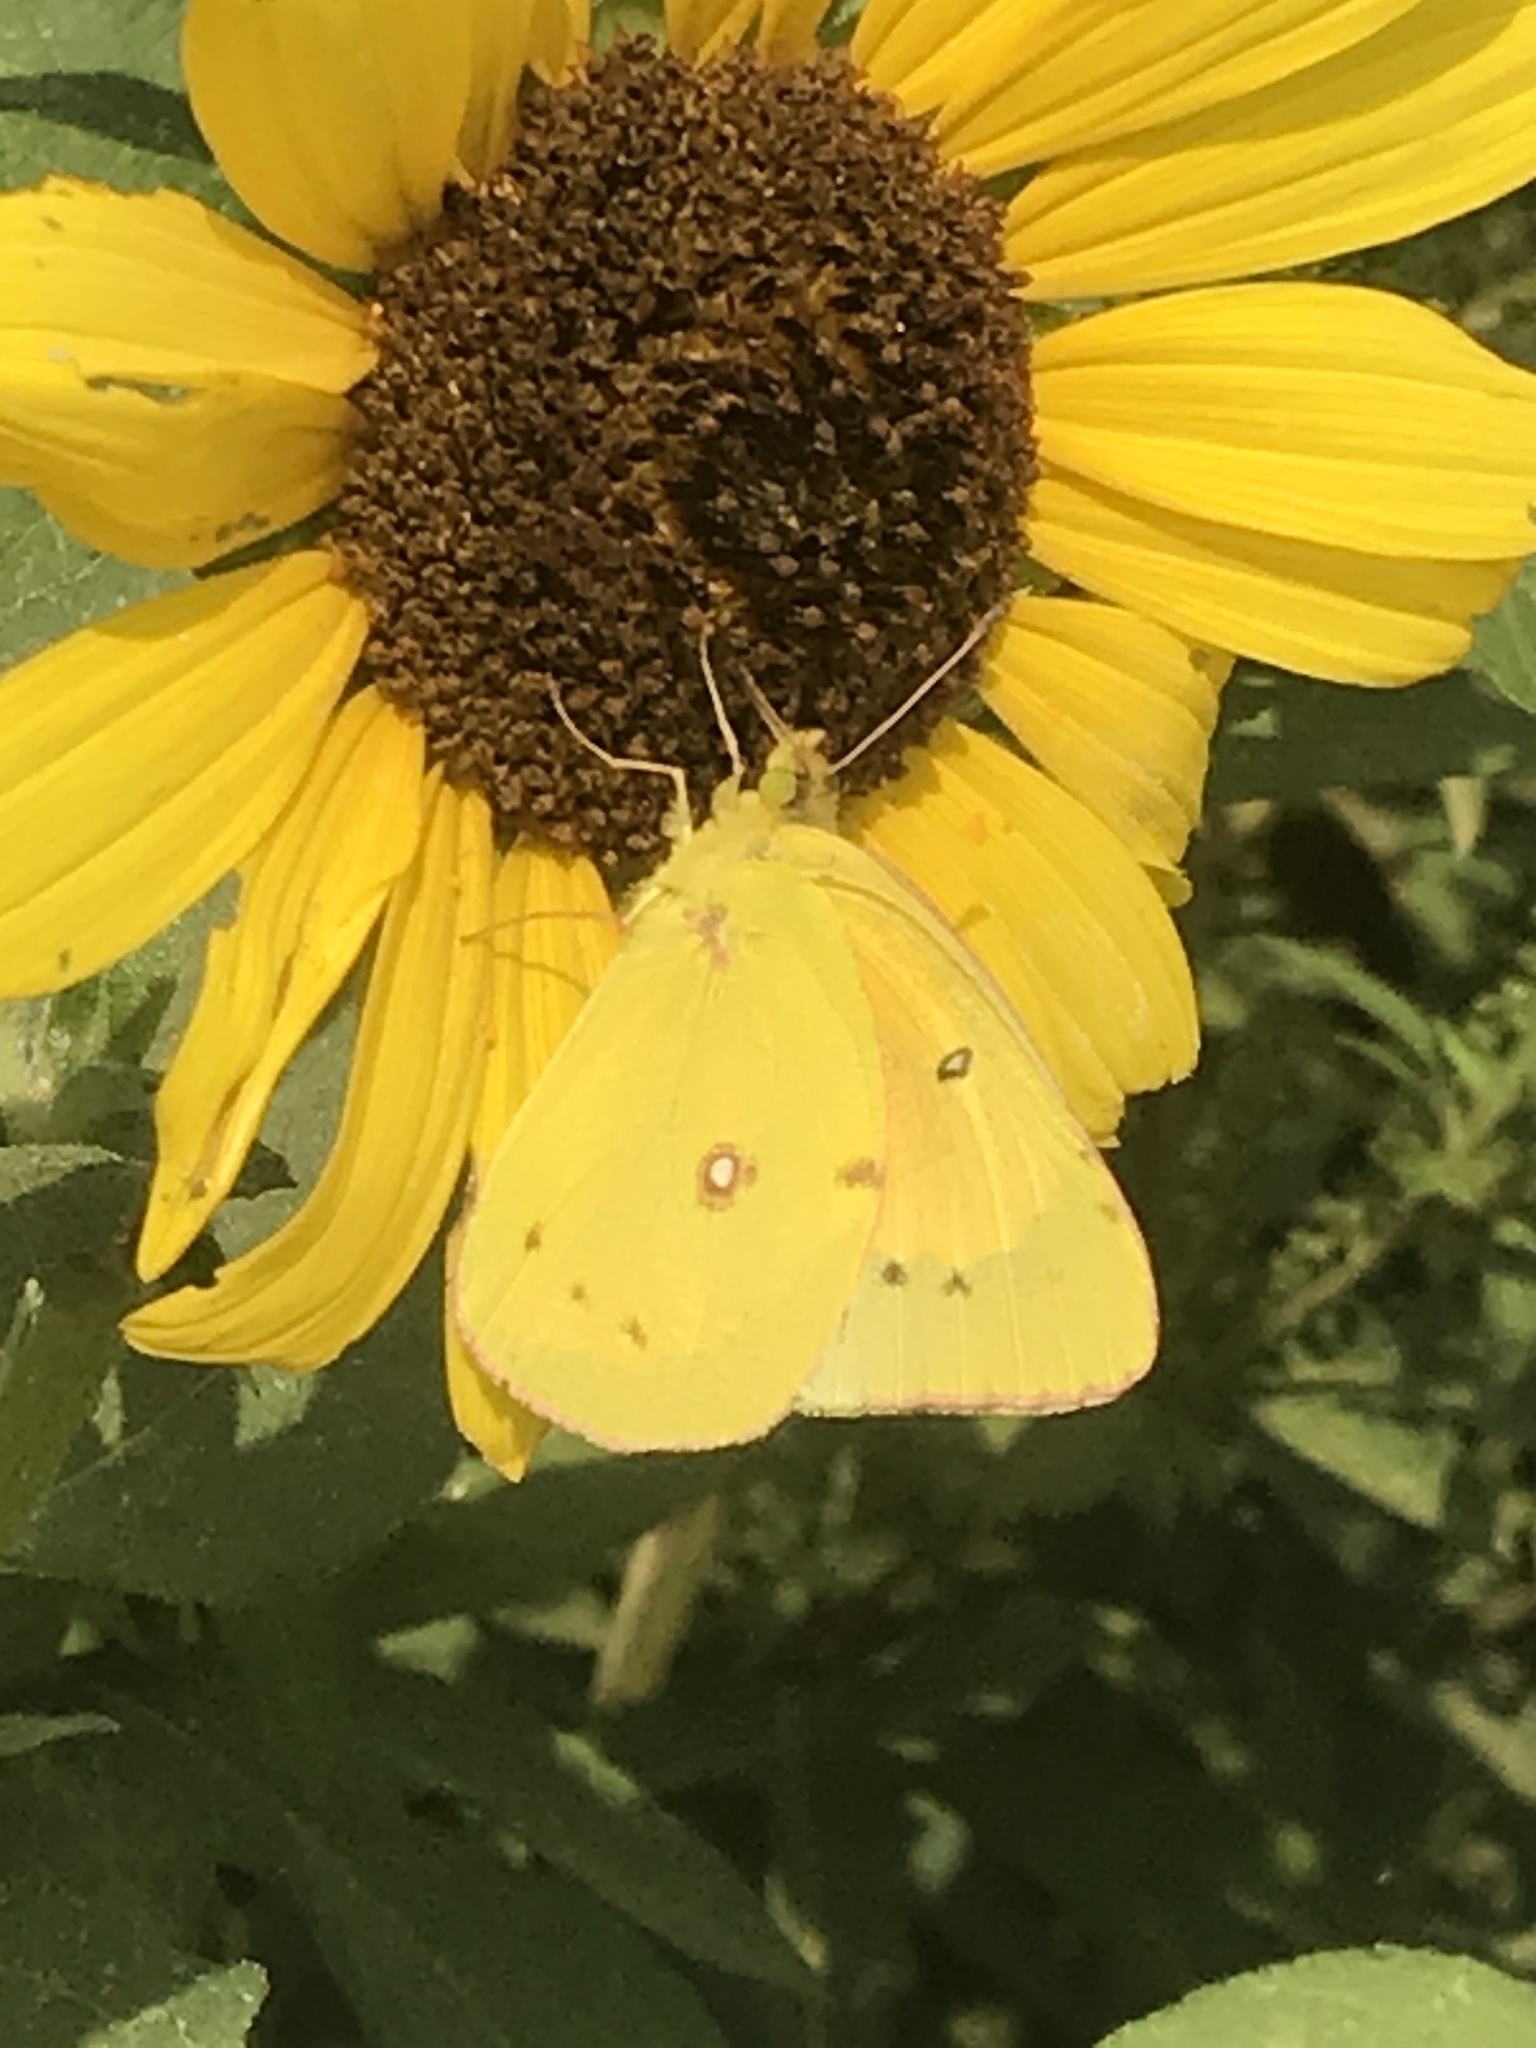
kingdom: Animalia
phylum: Arthropoda
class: Insecta
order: Lepidoptera
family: Pieridae
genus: Colias
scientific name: Colias eurytheme
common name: Alfalfa butterfly
